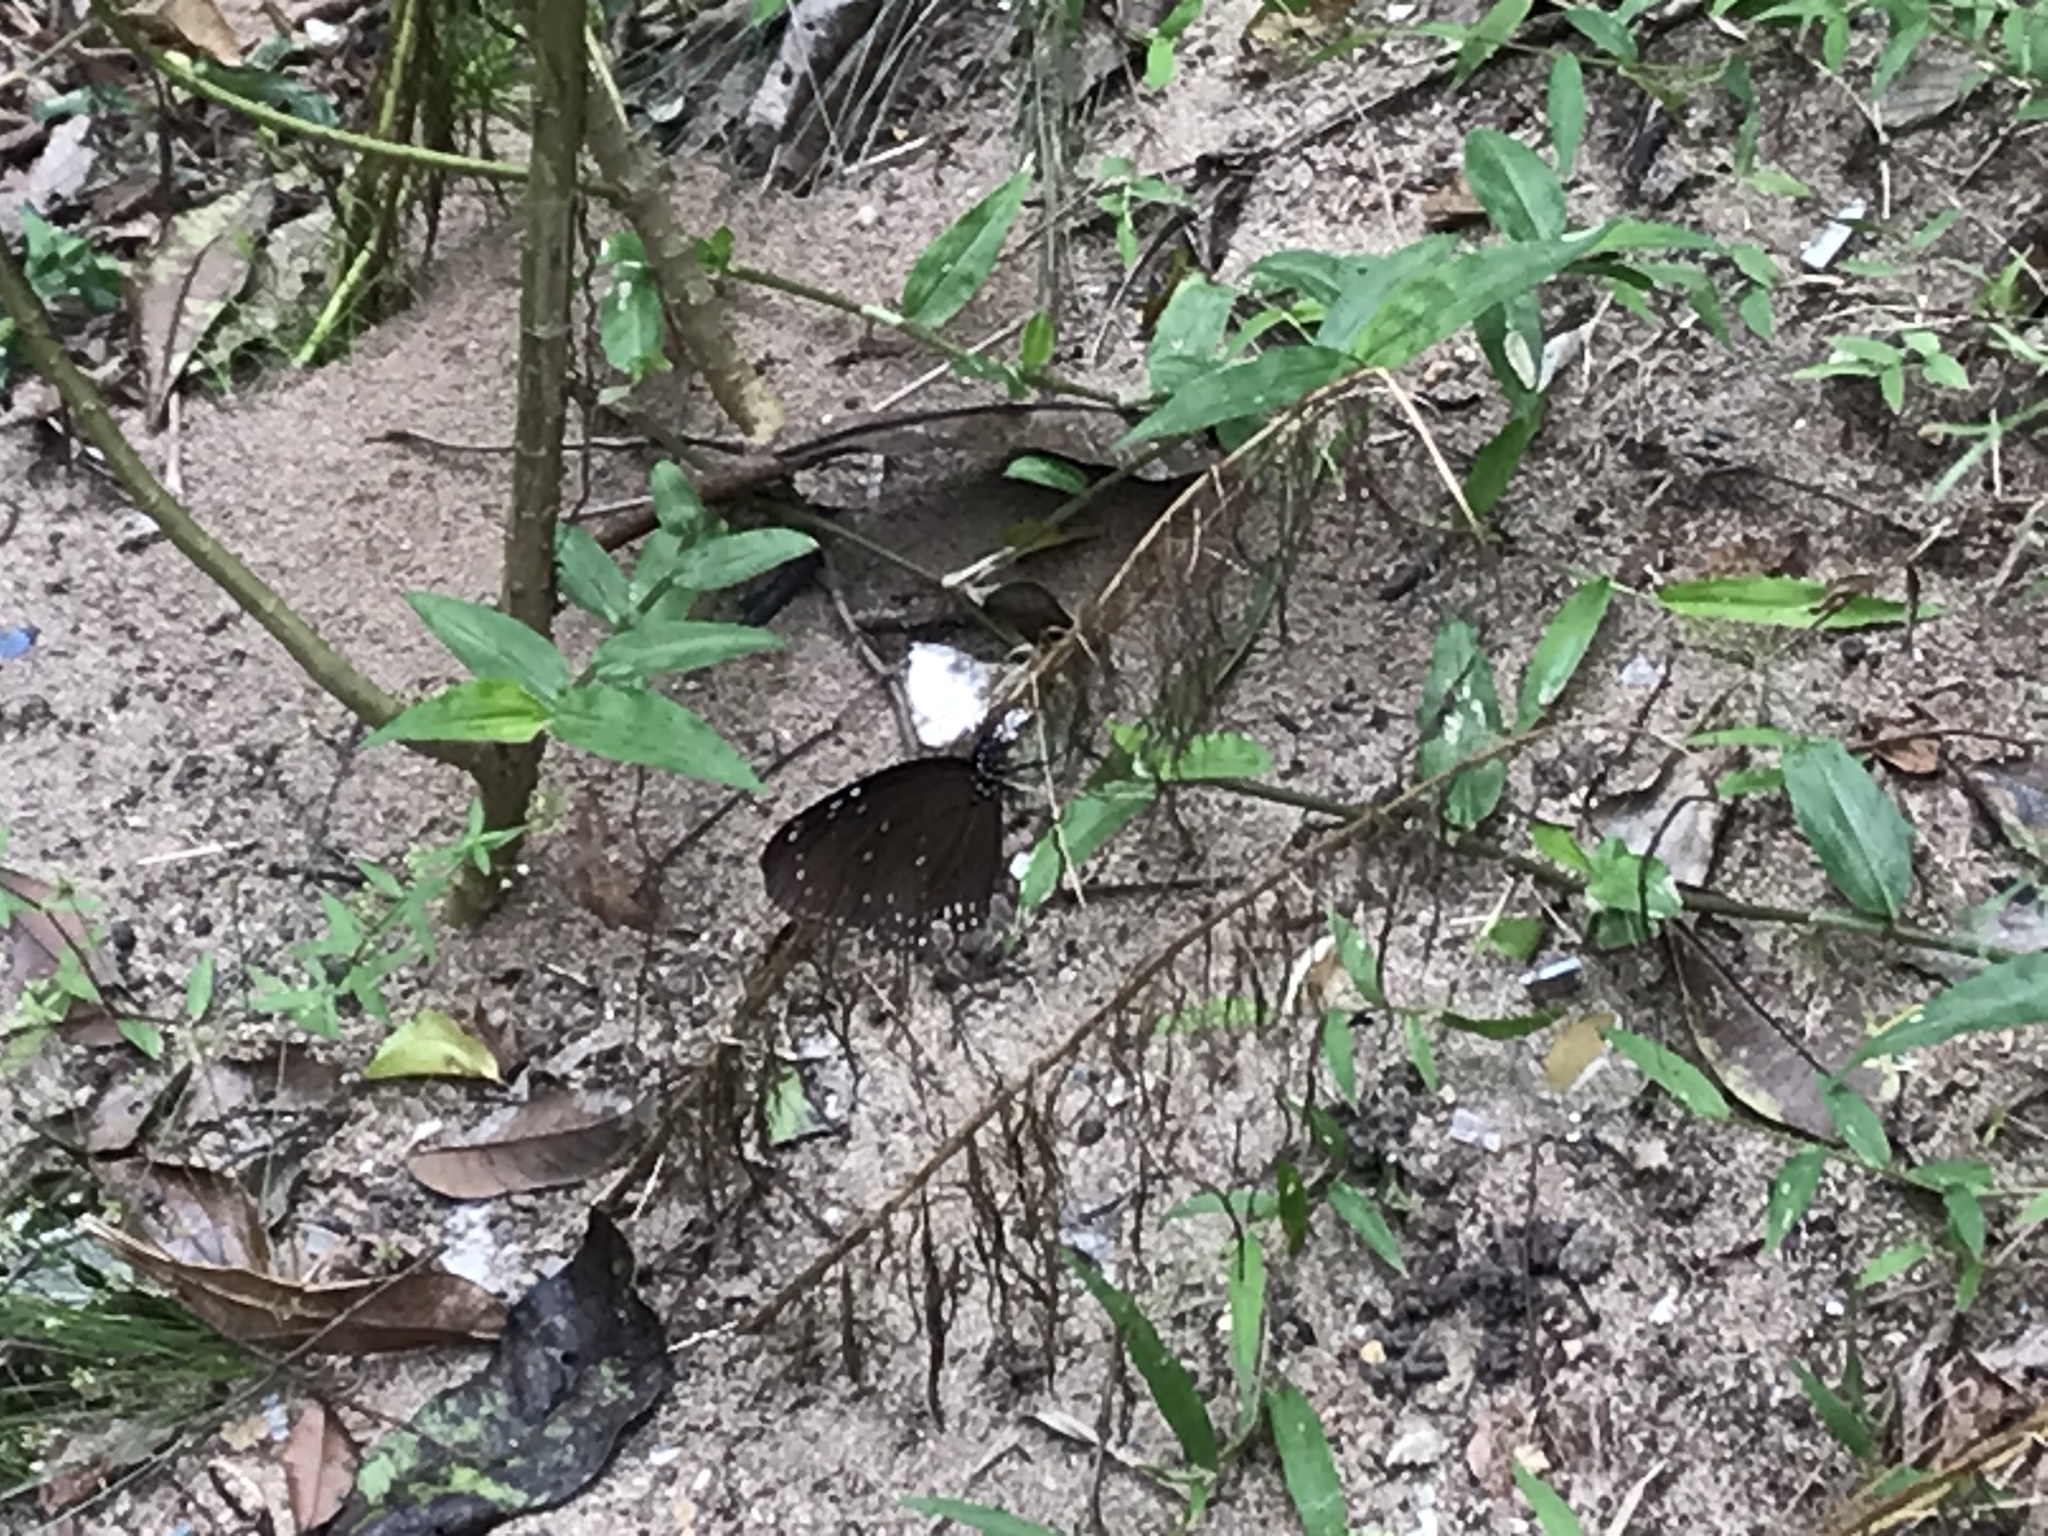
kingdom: Animalia
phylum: Arthropoda
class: Insecta
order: Lepidoptera
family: Nymphalidae
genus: Euploea
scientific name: Euploea midamus
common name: Blue-spotted crow butterfly
